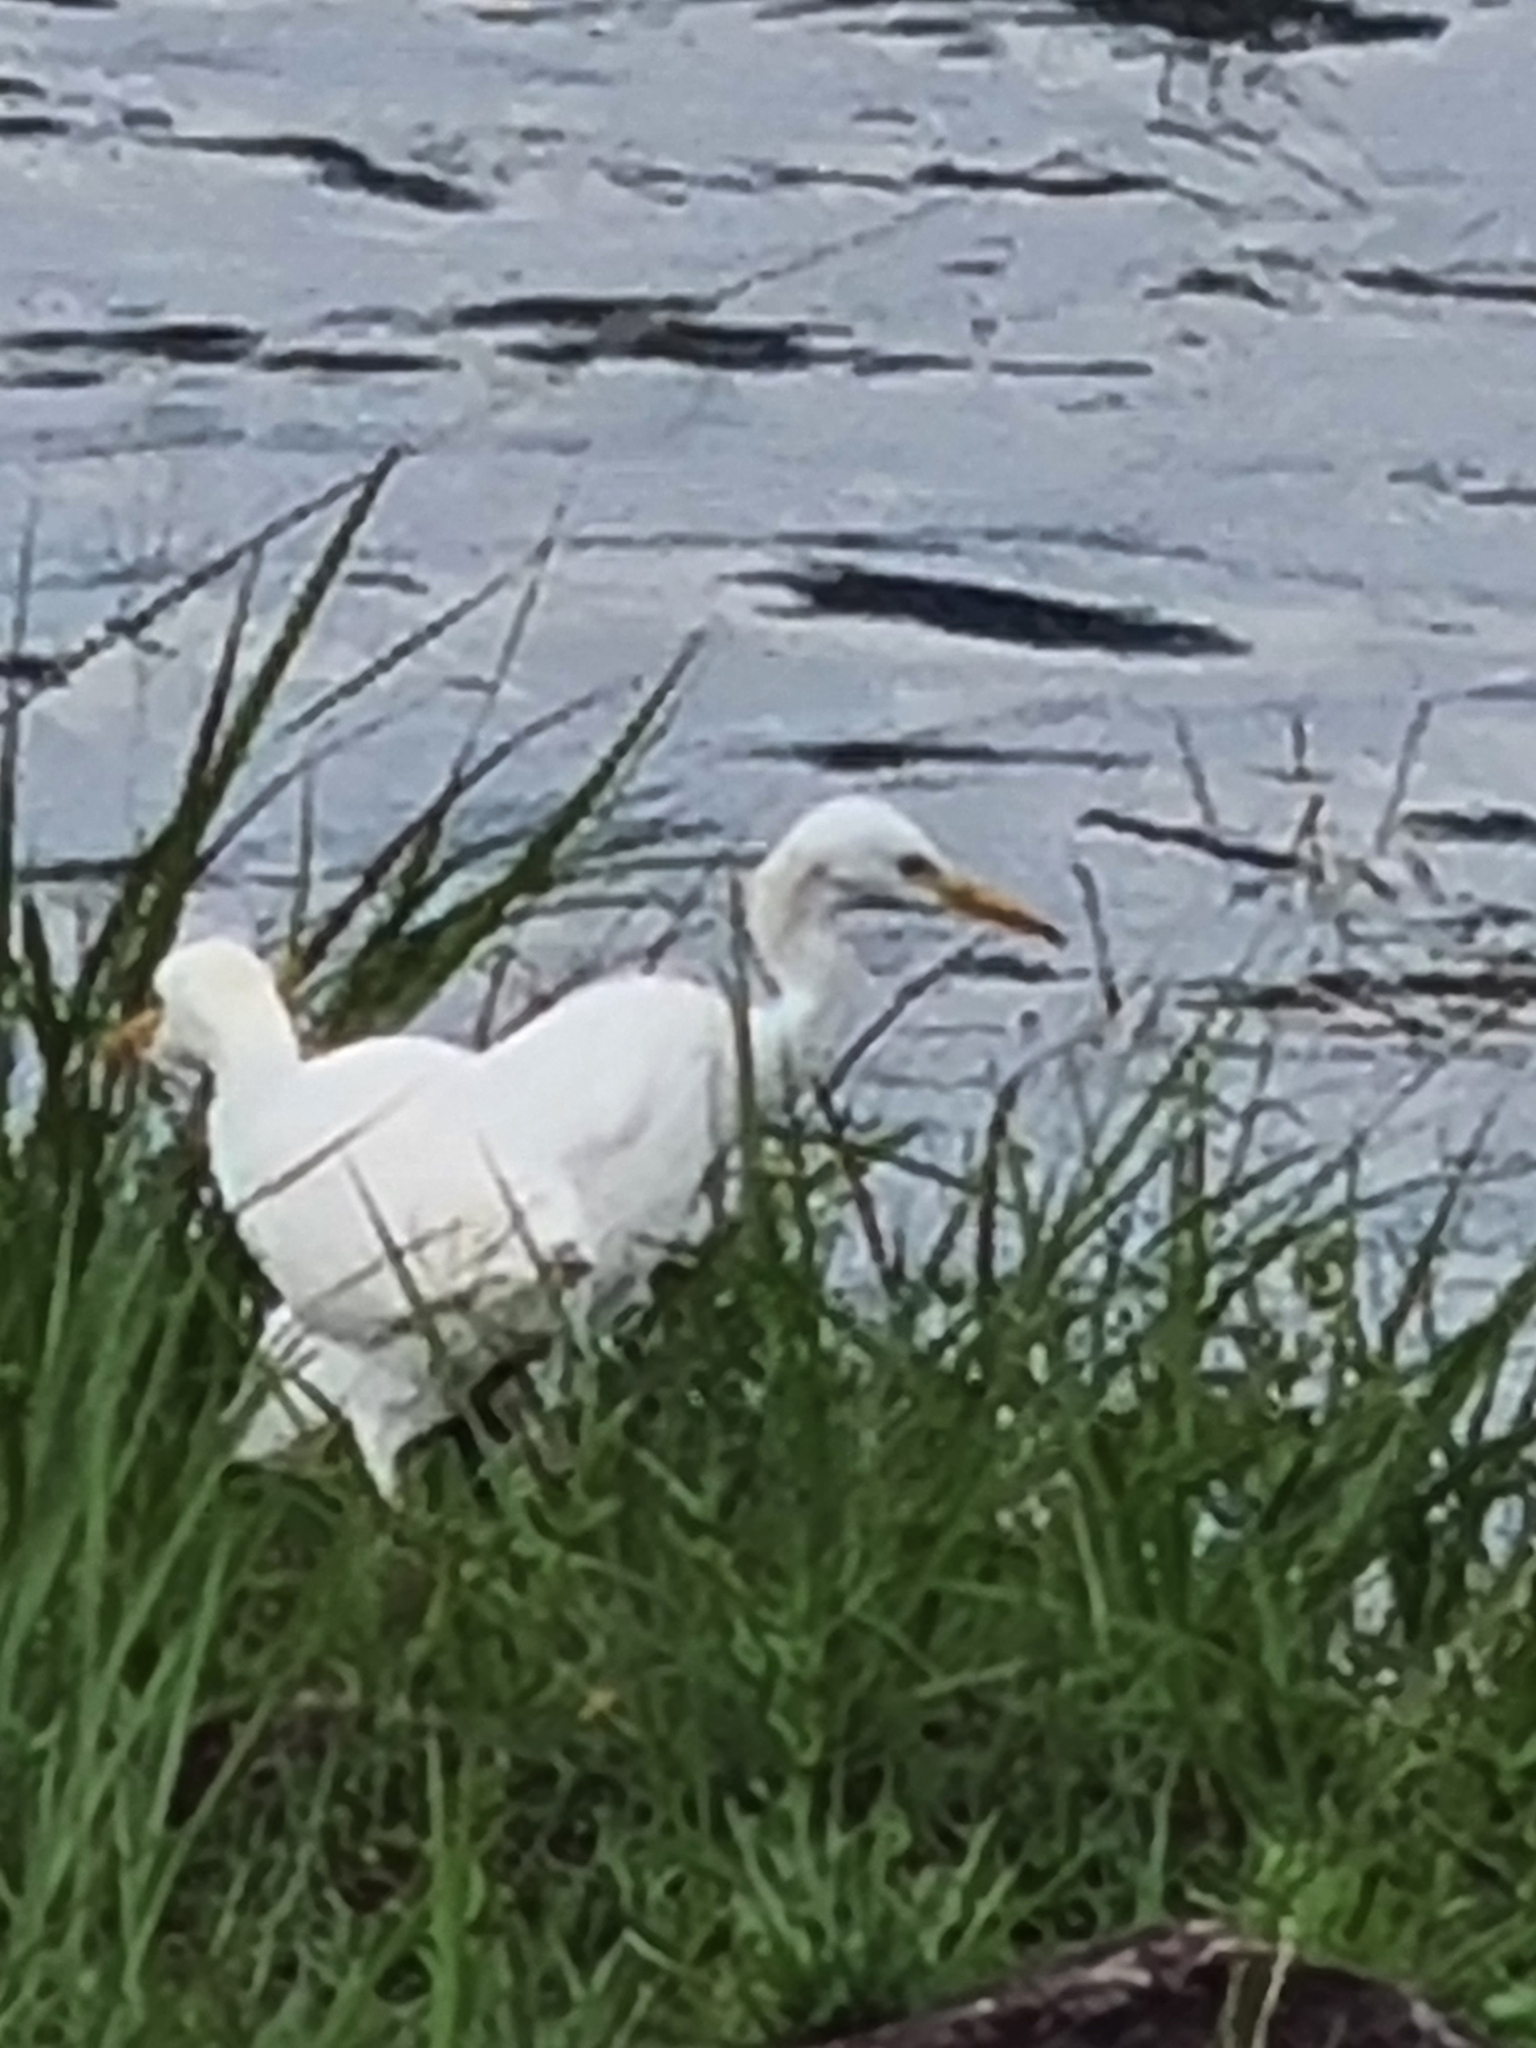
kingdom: Animalia
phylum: Chordata
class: Aves
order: Pelecaniformes
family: Ardeidae
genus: Bubulcus
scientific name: Bubulcus ibis
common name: Cattle egret
